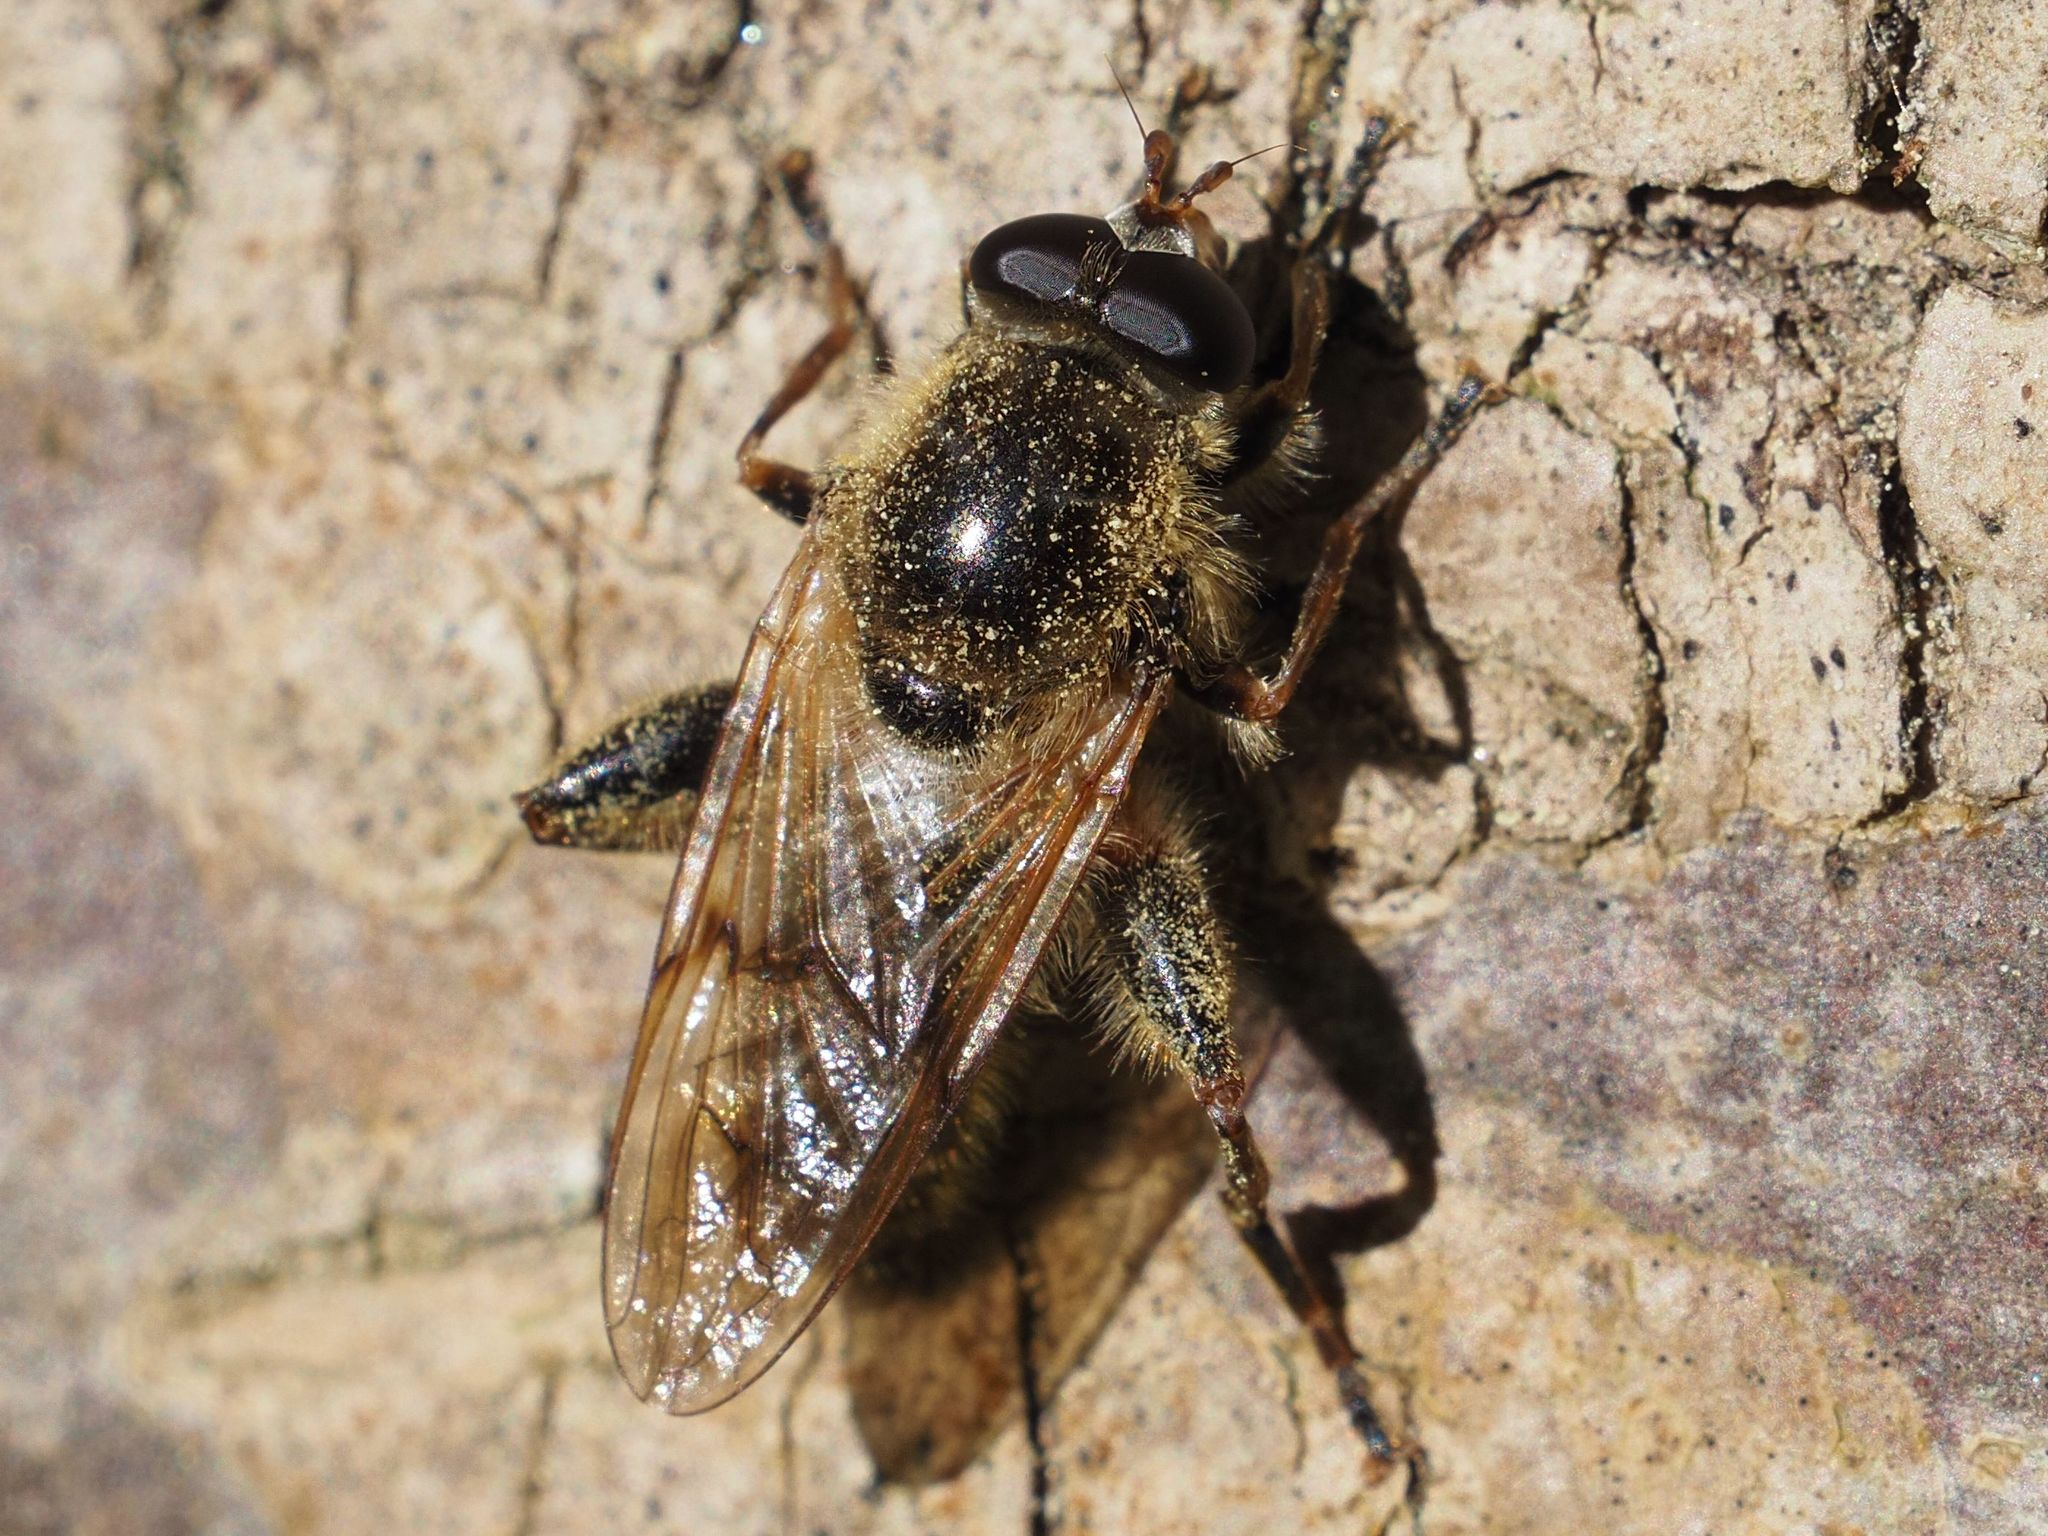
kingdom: Animalia
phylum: Arthropoda
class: Insecta
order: Diptera
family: Syrphidae
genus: Brachypalpus
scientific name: Brachypalpus valgus
